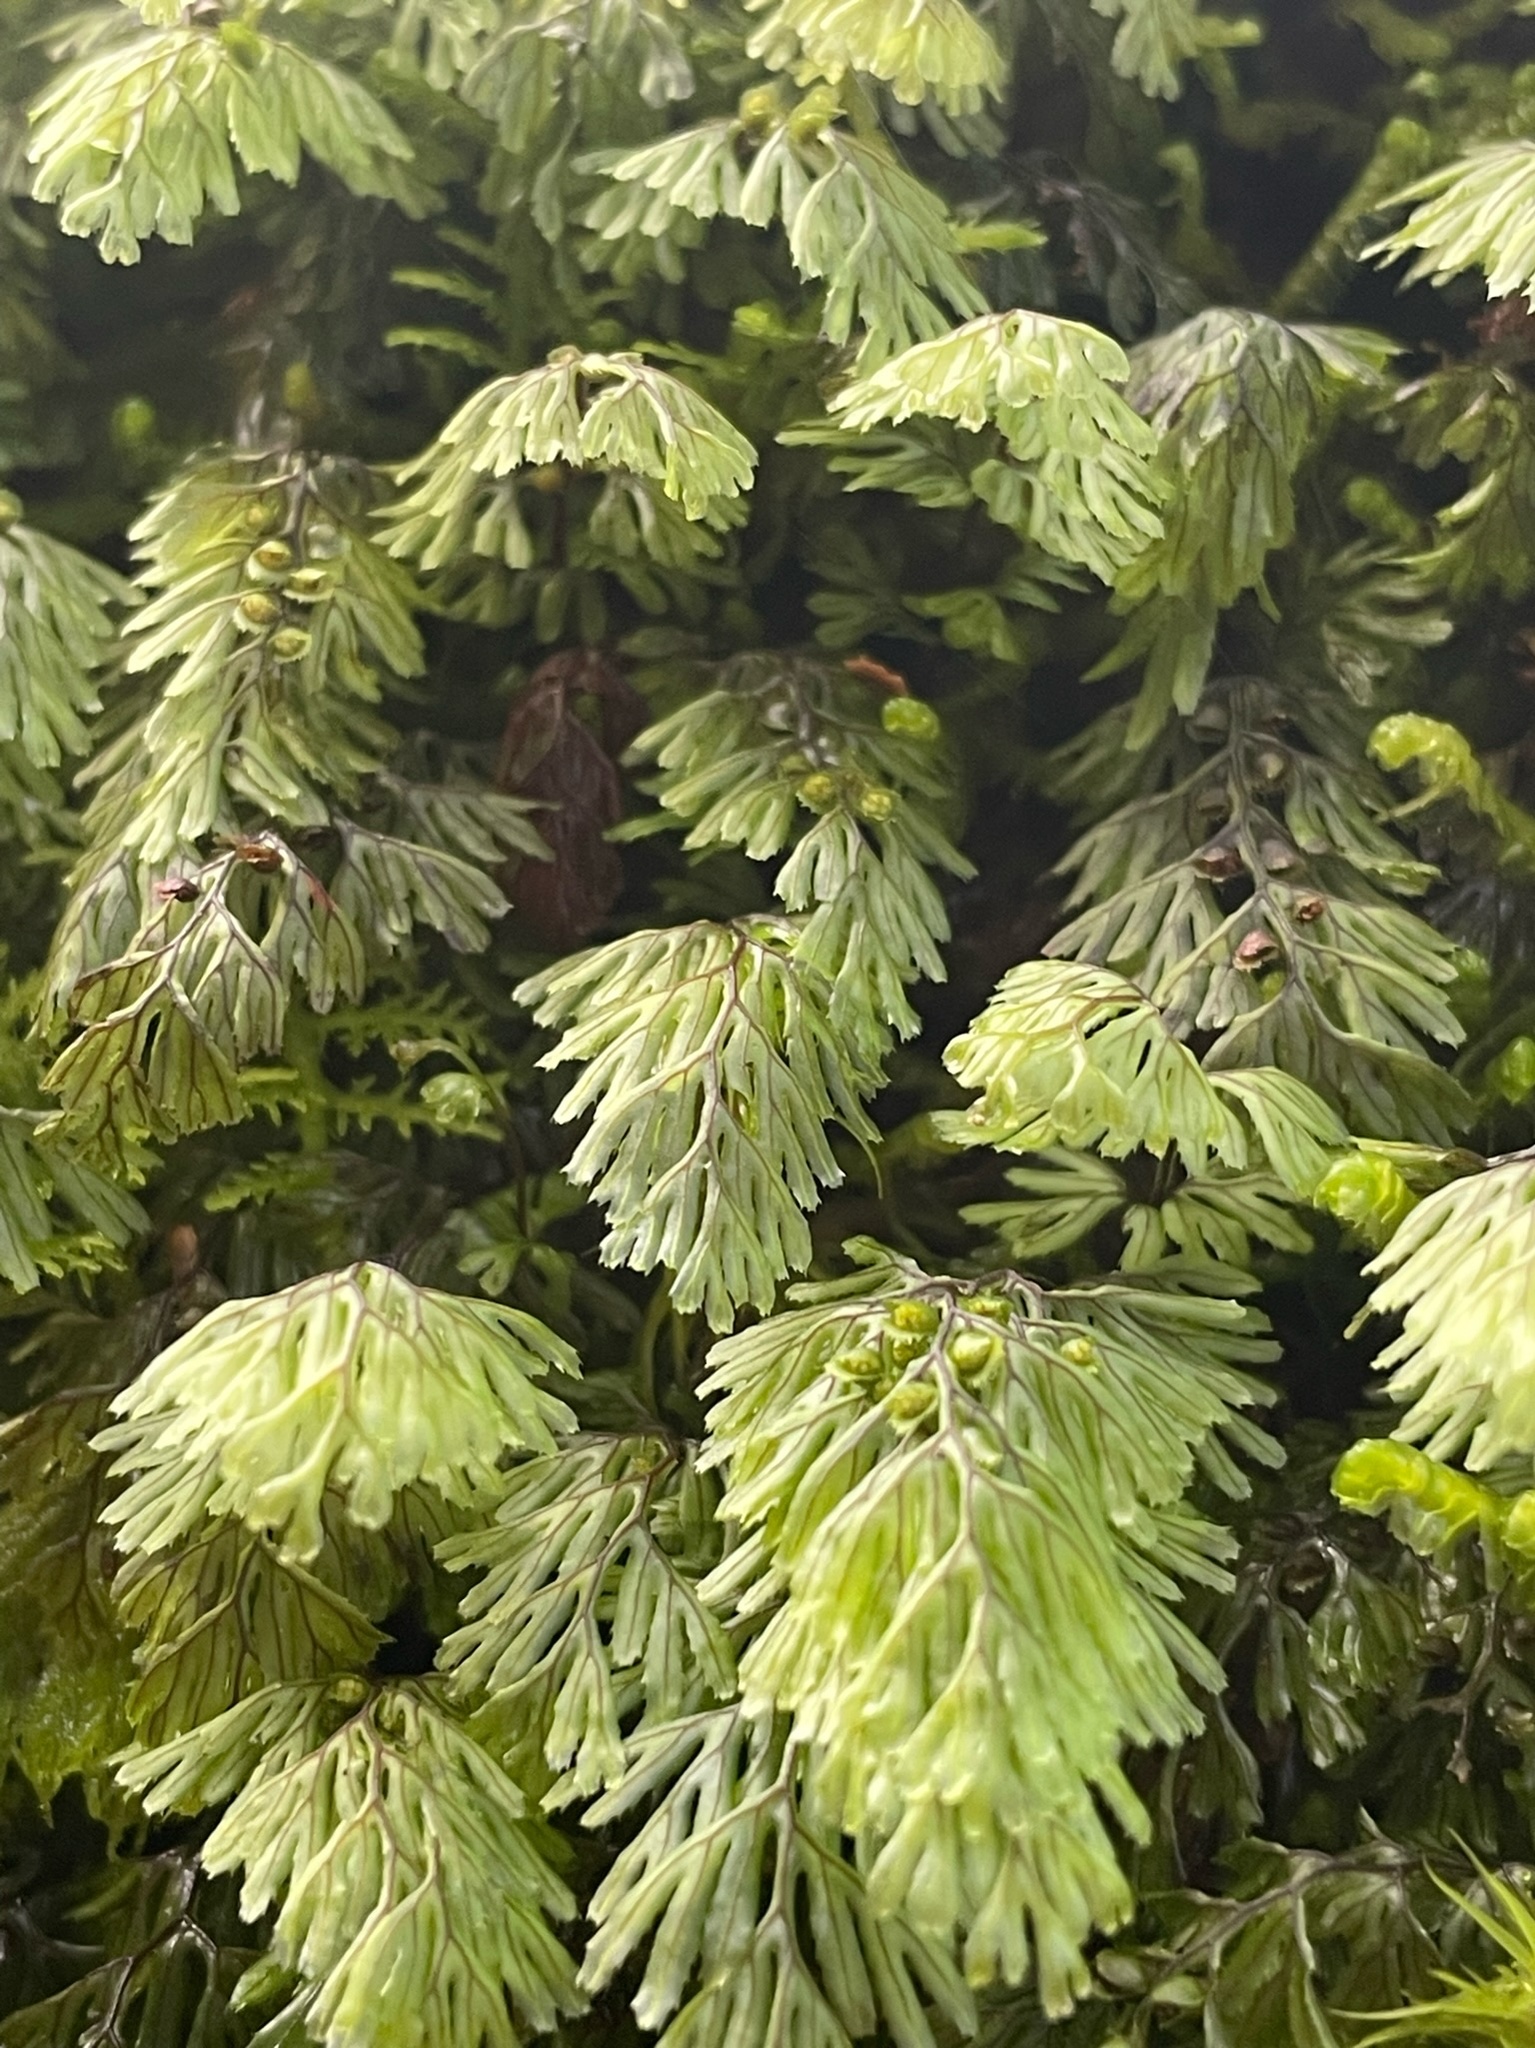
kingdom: Plantae
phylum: Tracheophyta
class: Polypodiopsida
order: Hymenophyllales
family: Hymenophyllaceae
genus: Hymenophyllum
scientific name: Hymenophyllum tunbrigense
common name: Tunbridge filmy fern
